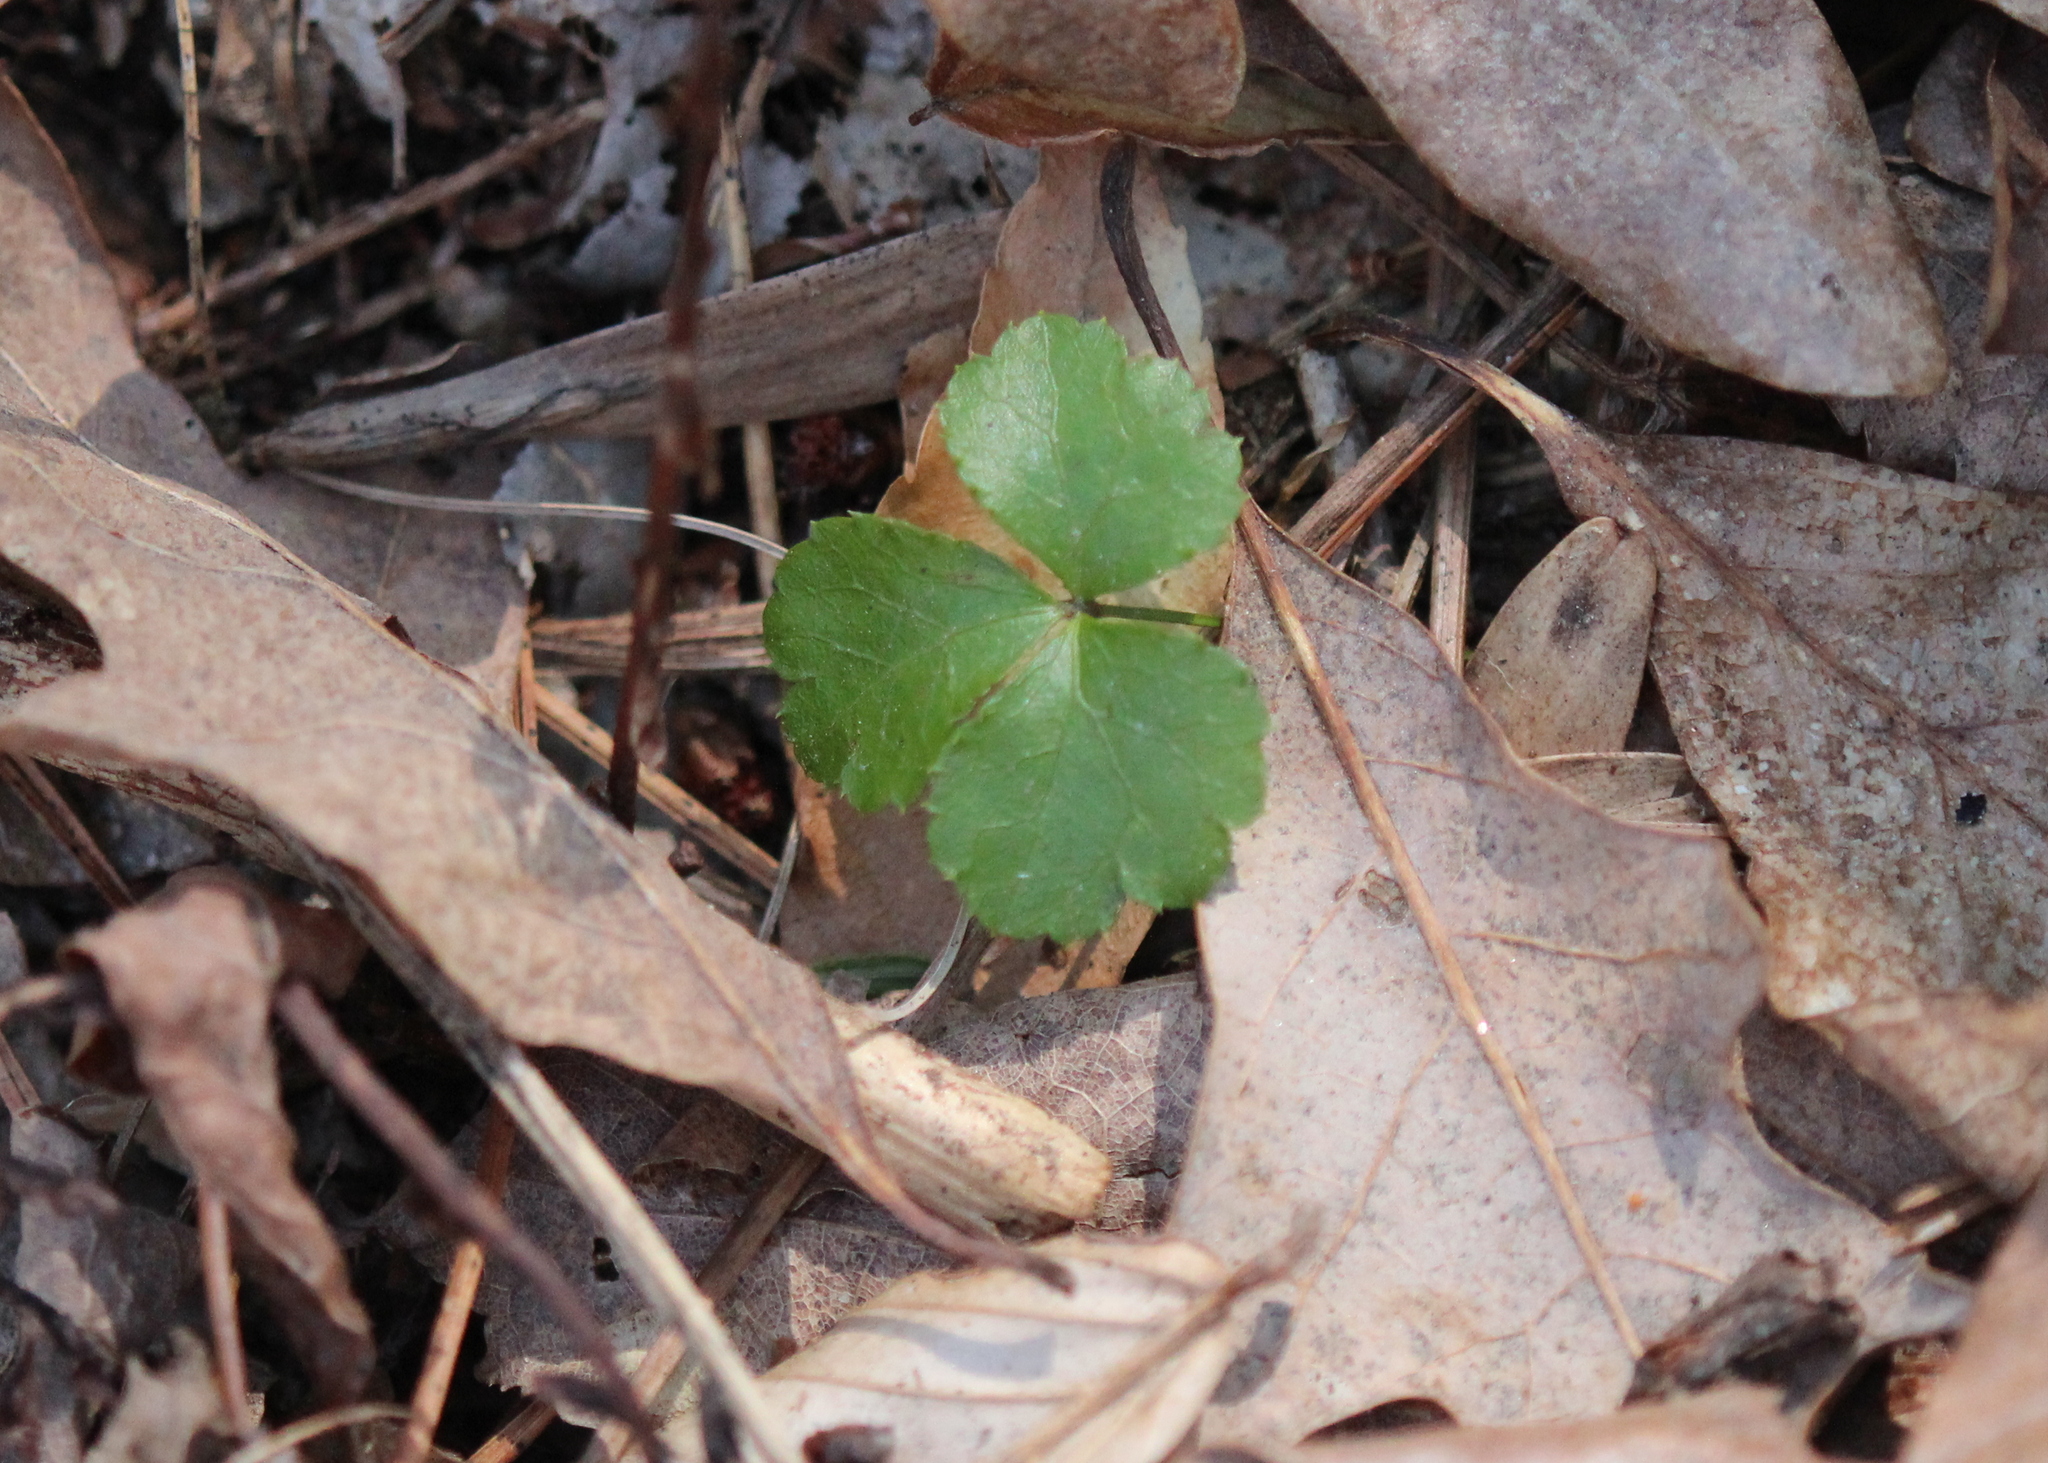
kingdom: Plantae
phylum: Tracheophyta
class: Magnoliopsida
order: Ranunculales
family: Ranunculaceae
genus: Coptis
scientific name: Coptis trifolia
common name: Canker-root
